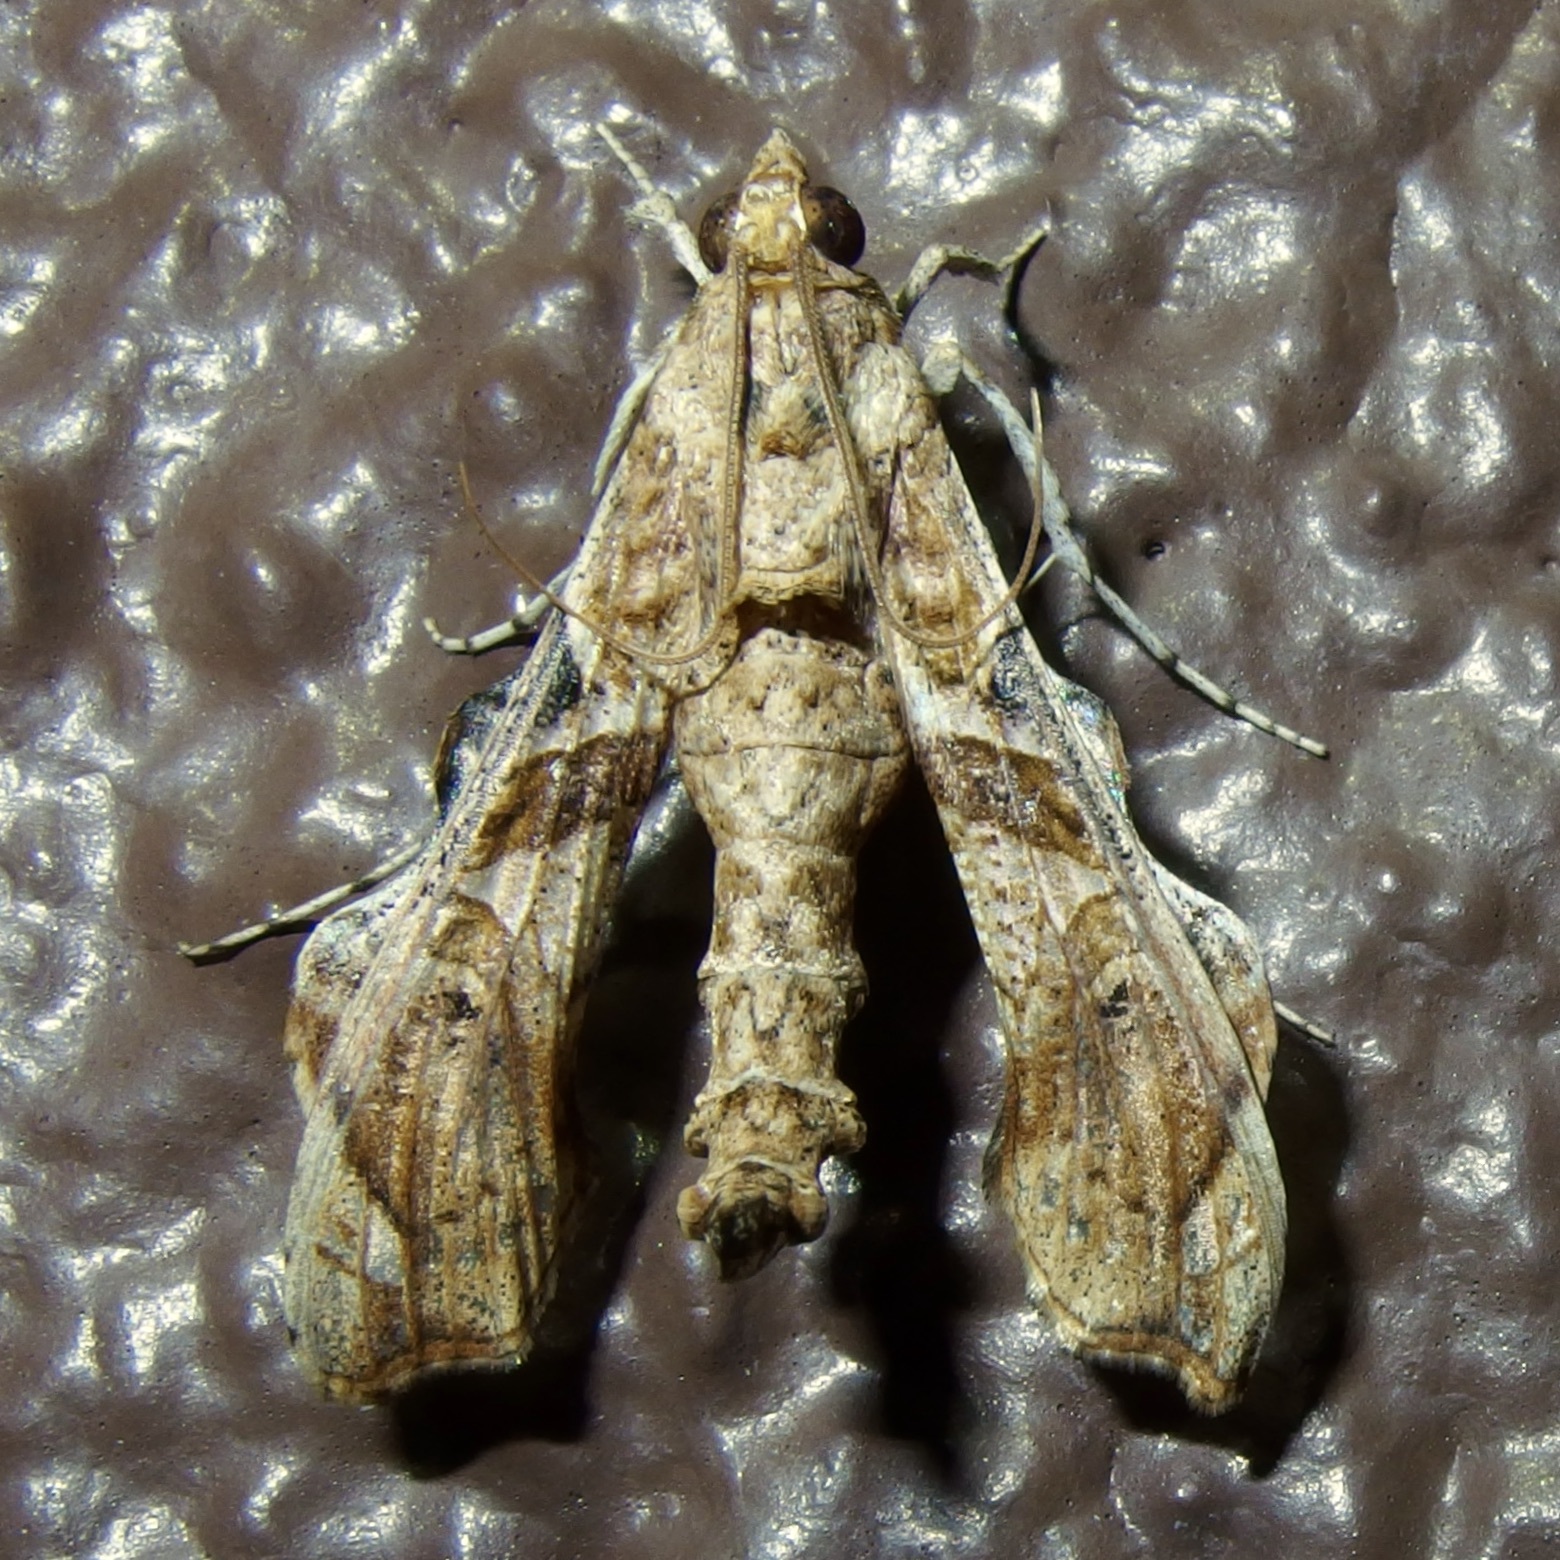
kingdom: Animalia
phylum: Arthropoda
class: Insecta
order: Lepidoptera
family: Crambidae
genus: Terastia
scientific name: Terastia meticulosalis
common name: Moth
